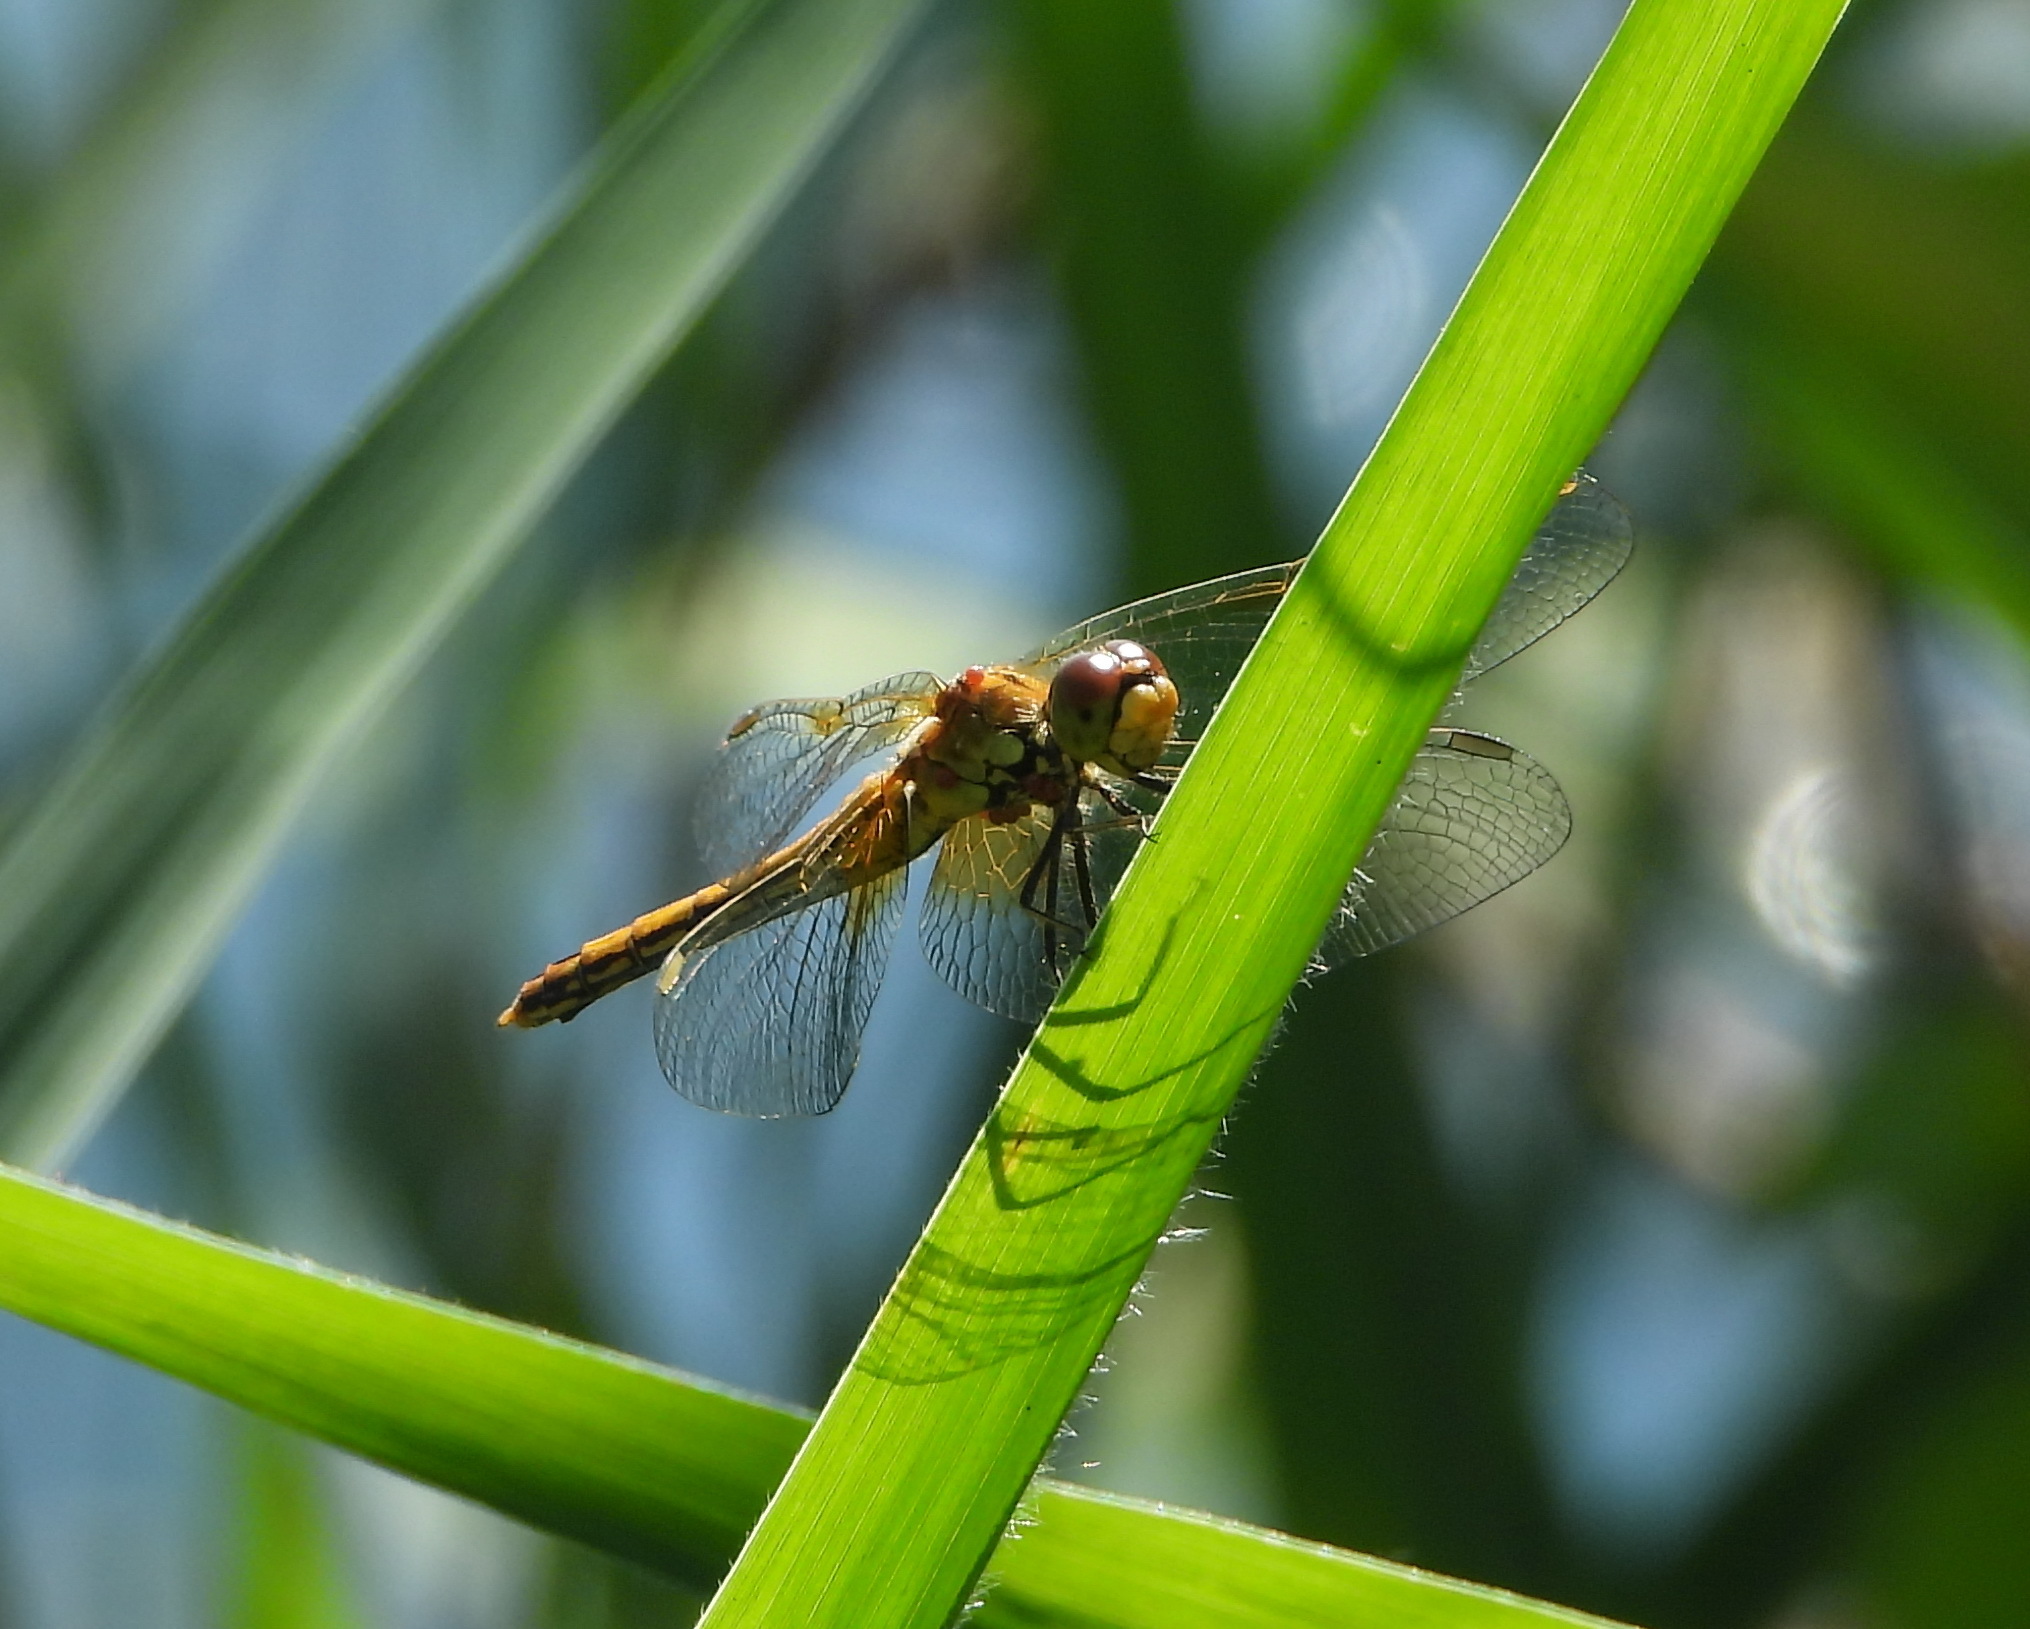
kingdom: Animalia
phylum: Arthropoda
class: Insecta
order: Odonata
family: Libellulidae
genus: Sympetrum
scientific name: Sympetrum flaveolum
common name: Yellow-winged darter
